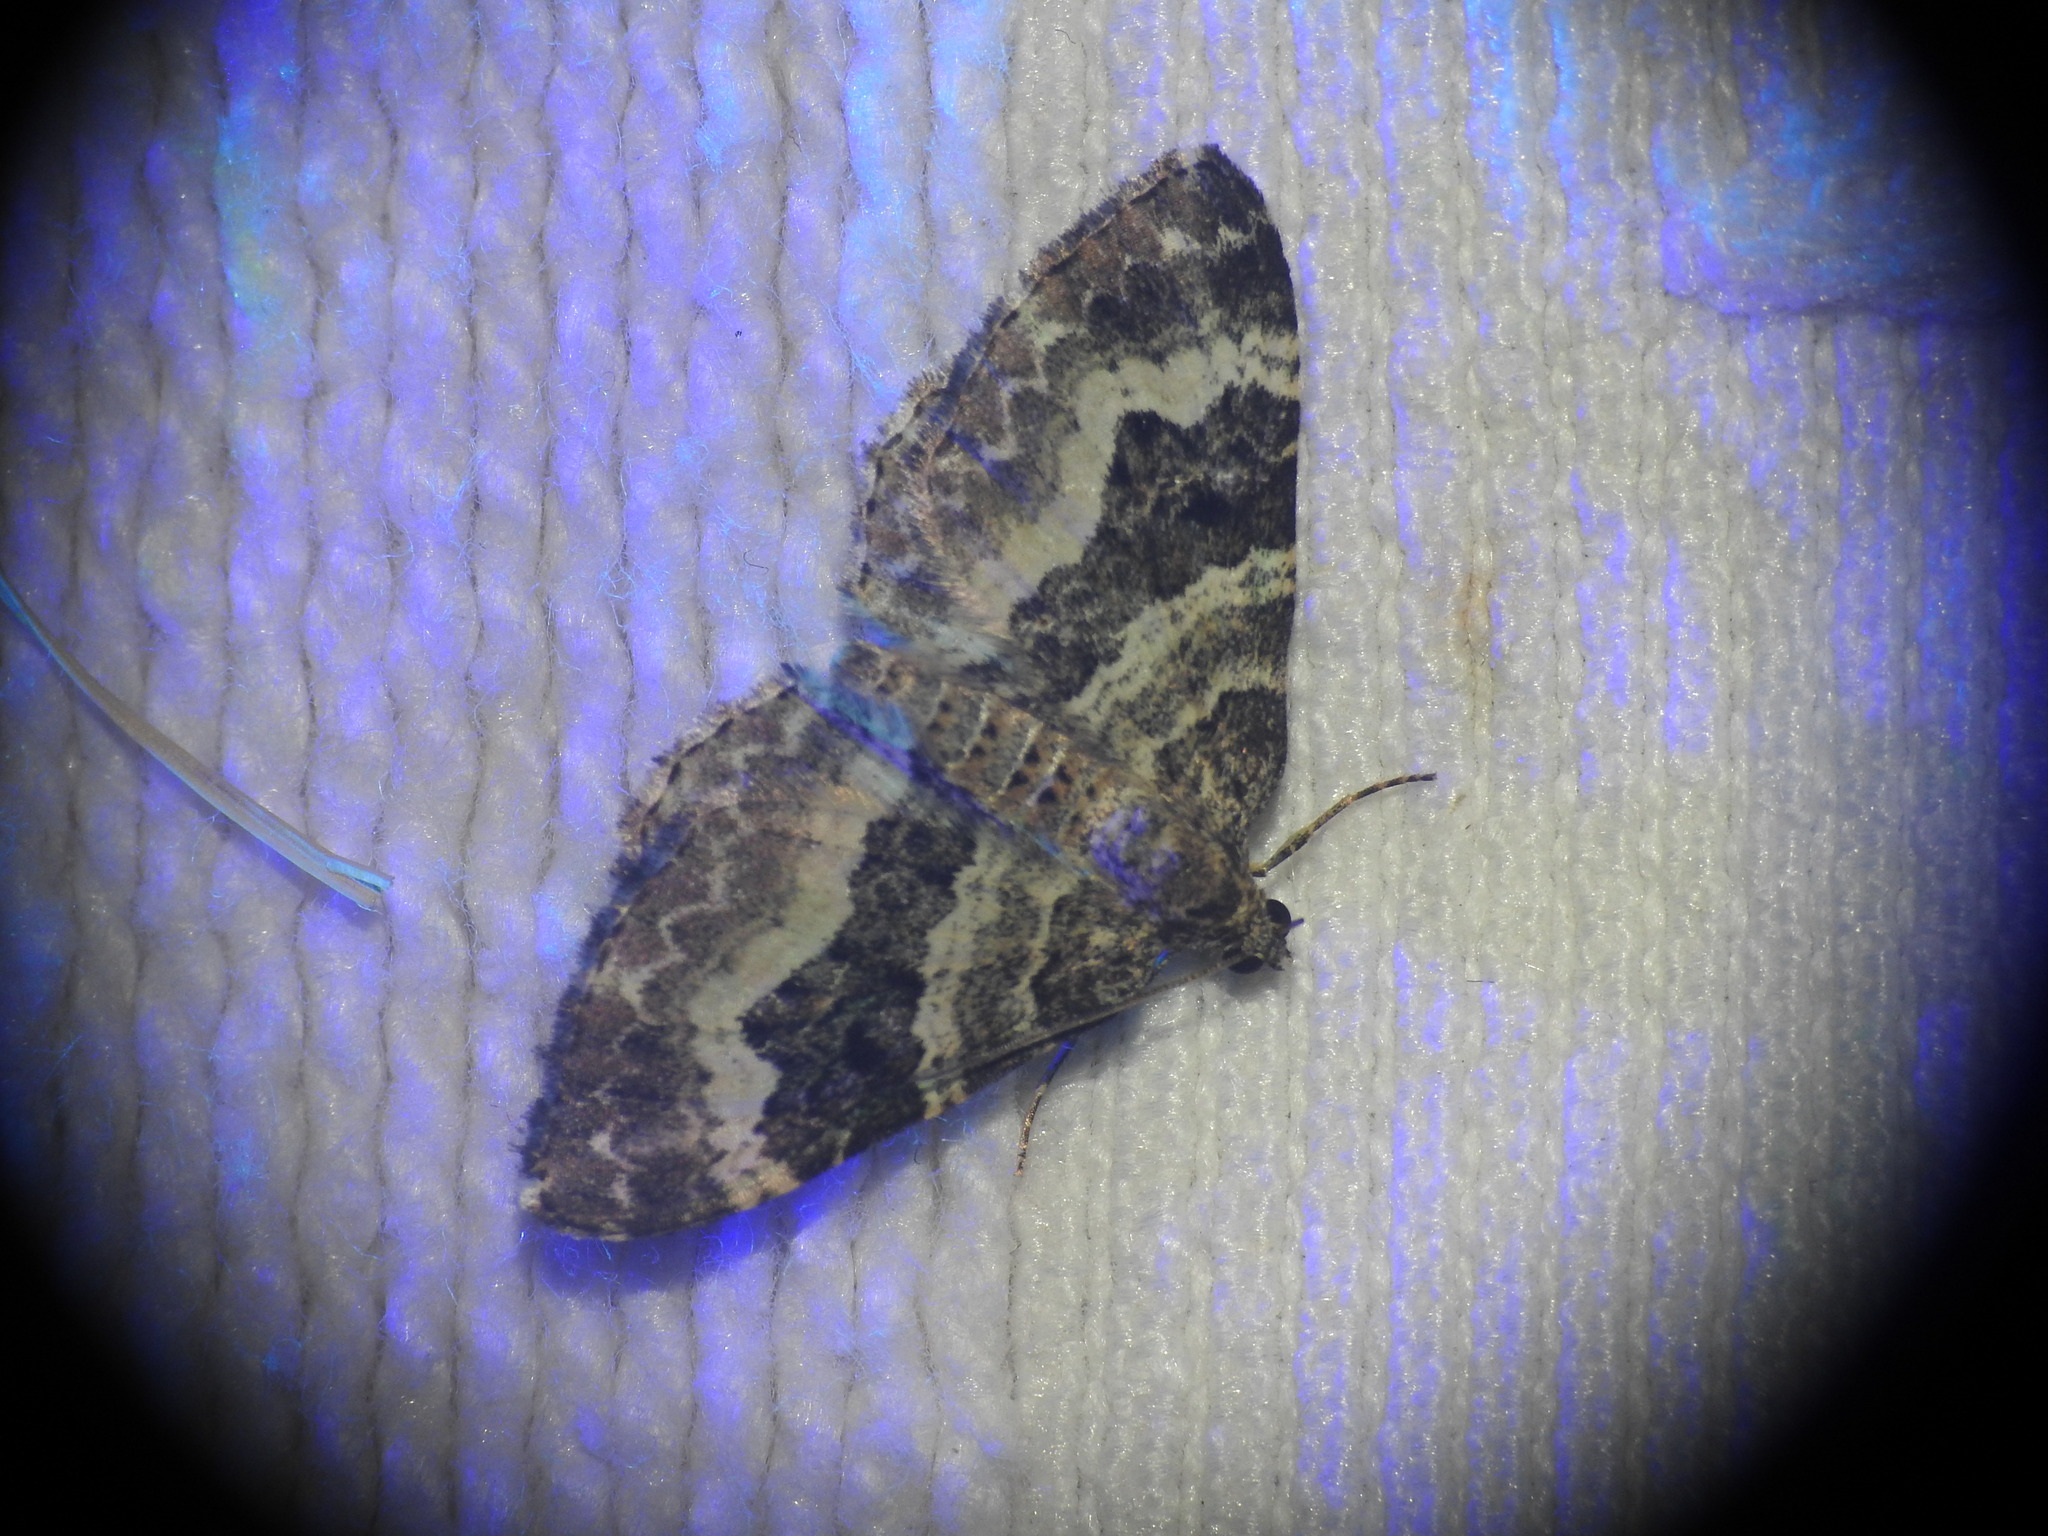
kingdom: Animalia
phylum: Arthropoda
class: Insecta
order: Lepidoptera
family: Geometridae
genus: Epirrhoe
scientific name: Epirrhoe alternata
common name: Common carpet
